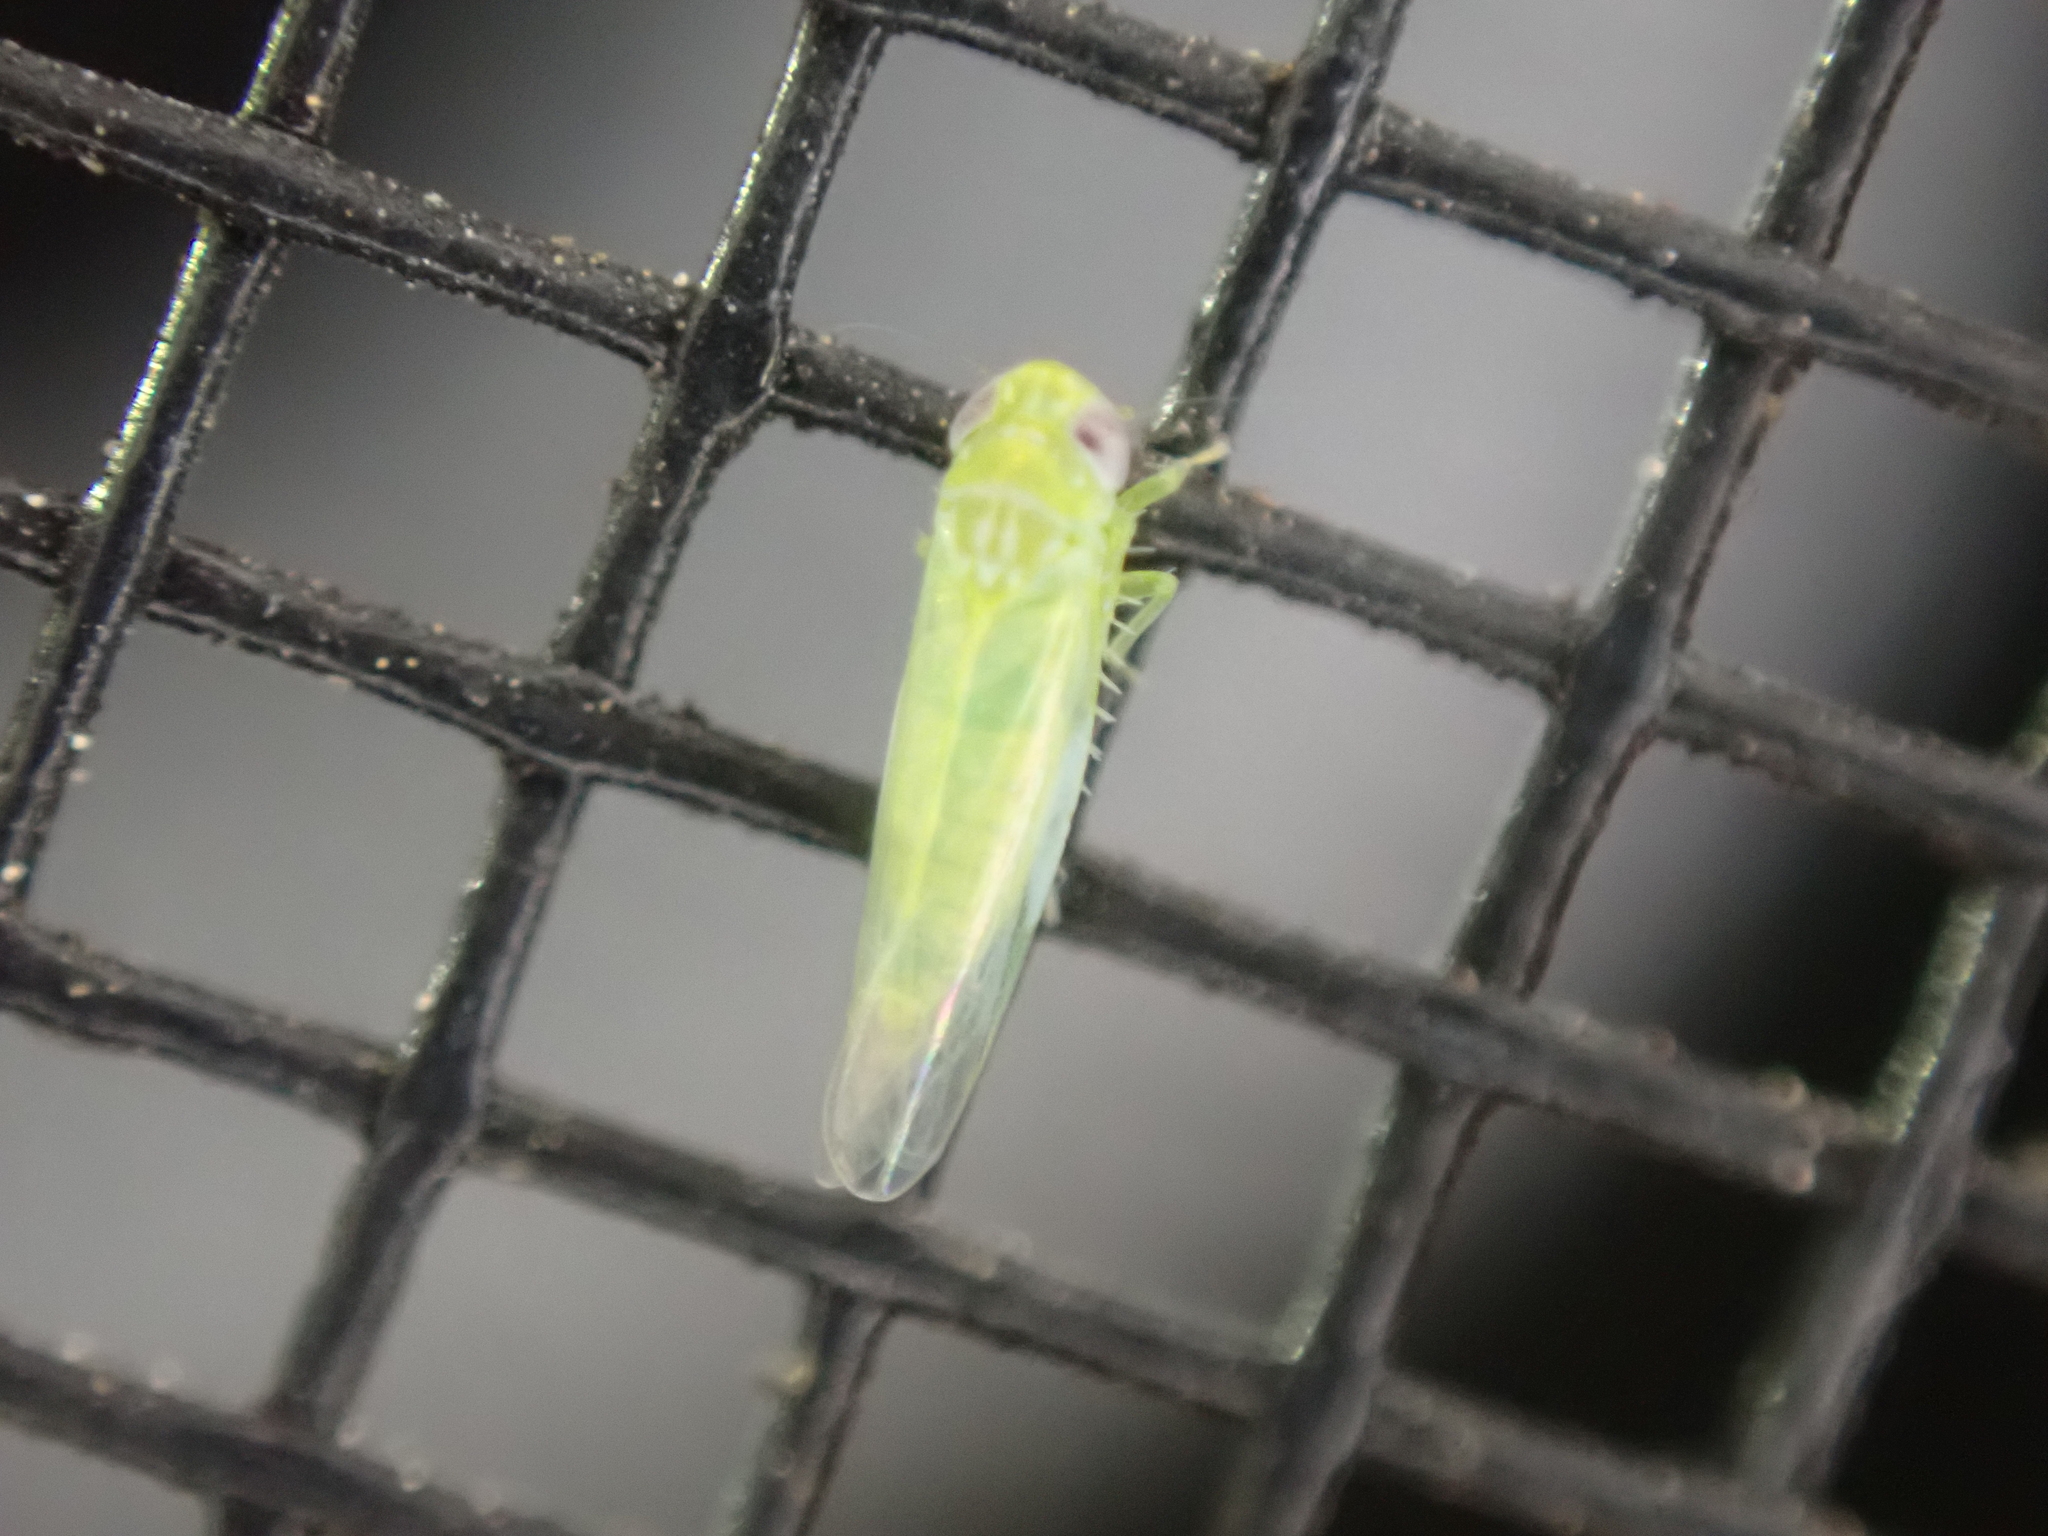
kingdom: Animalia
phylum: Arthropoda
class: Insecta
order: Hemiptera
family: Cicadellidae
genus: Empoasca
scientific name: Empoasca fabae
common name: Potato leafhopper
